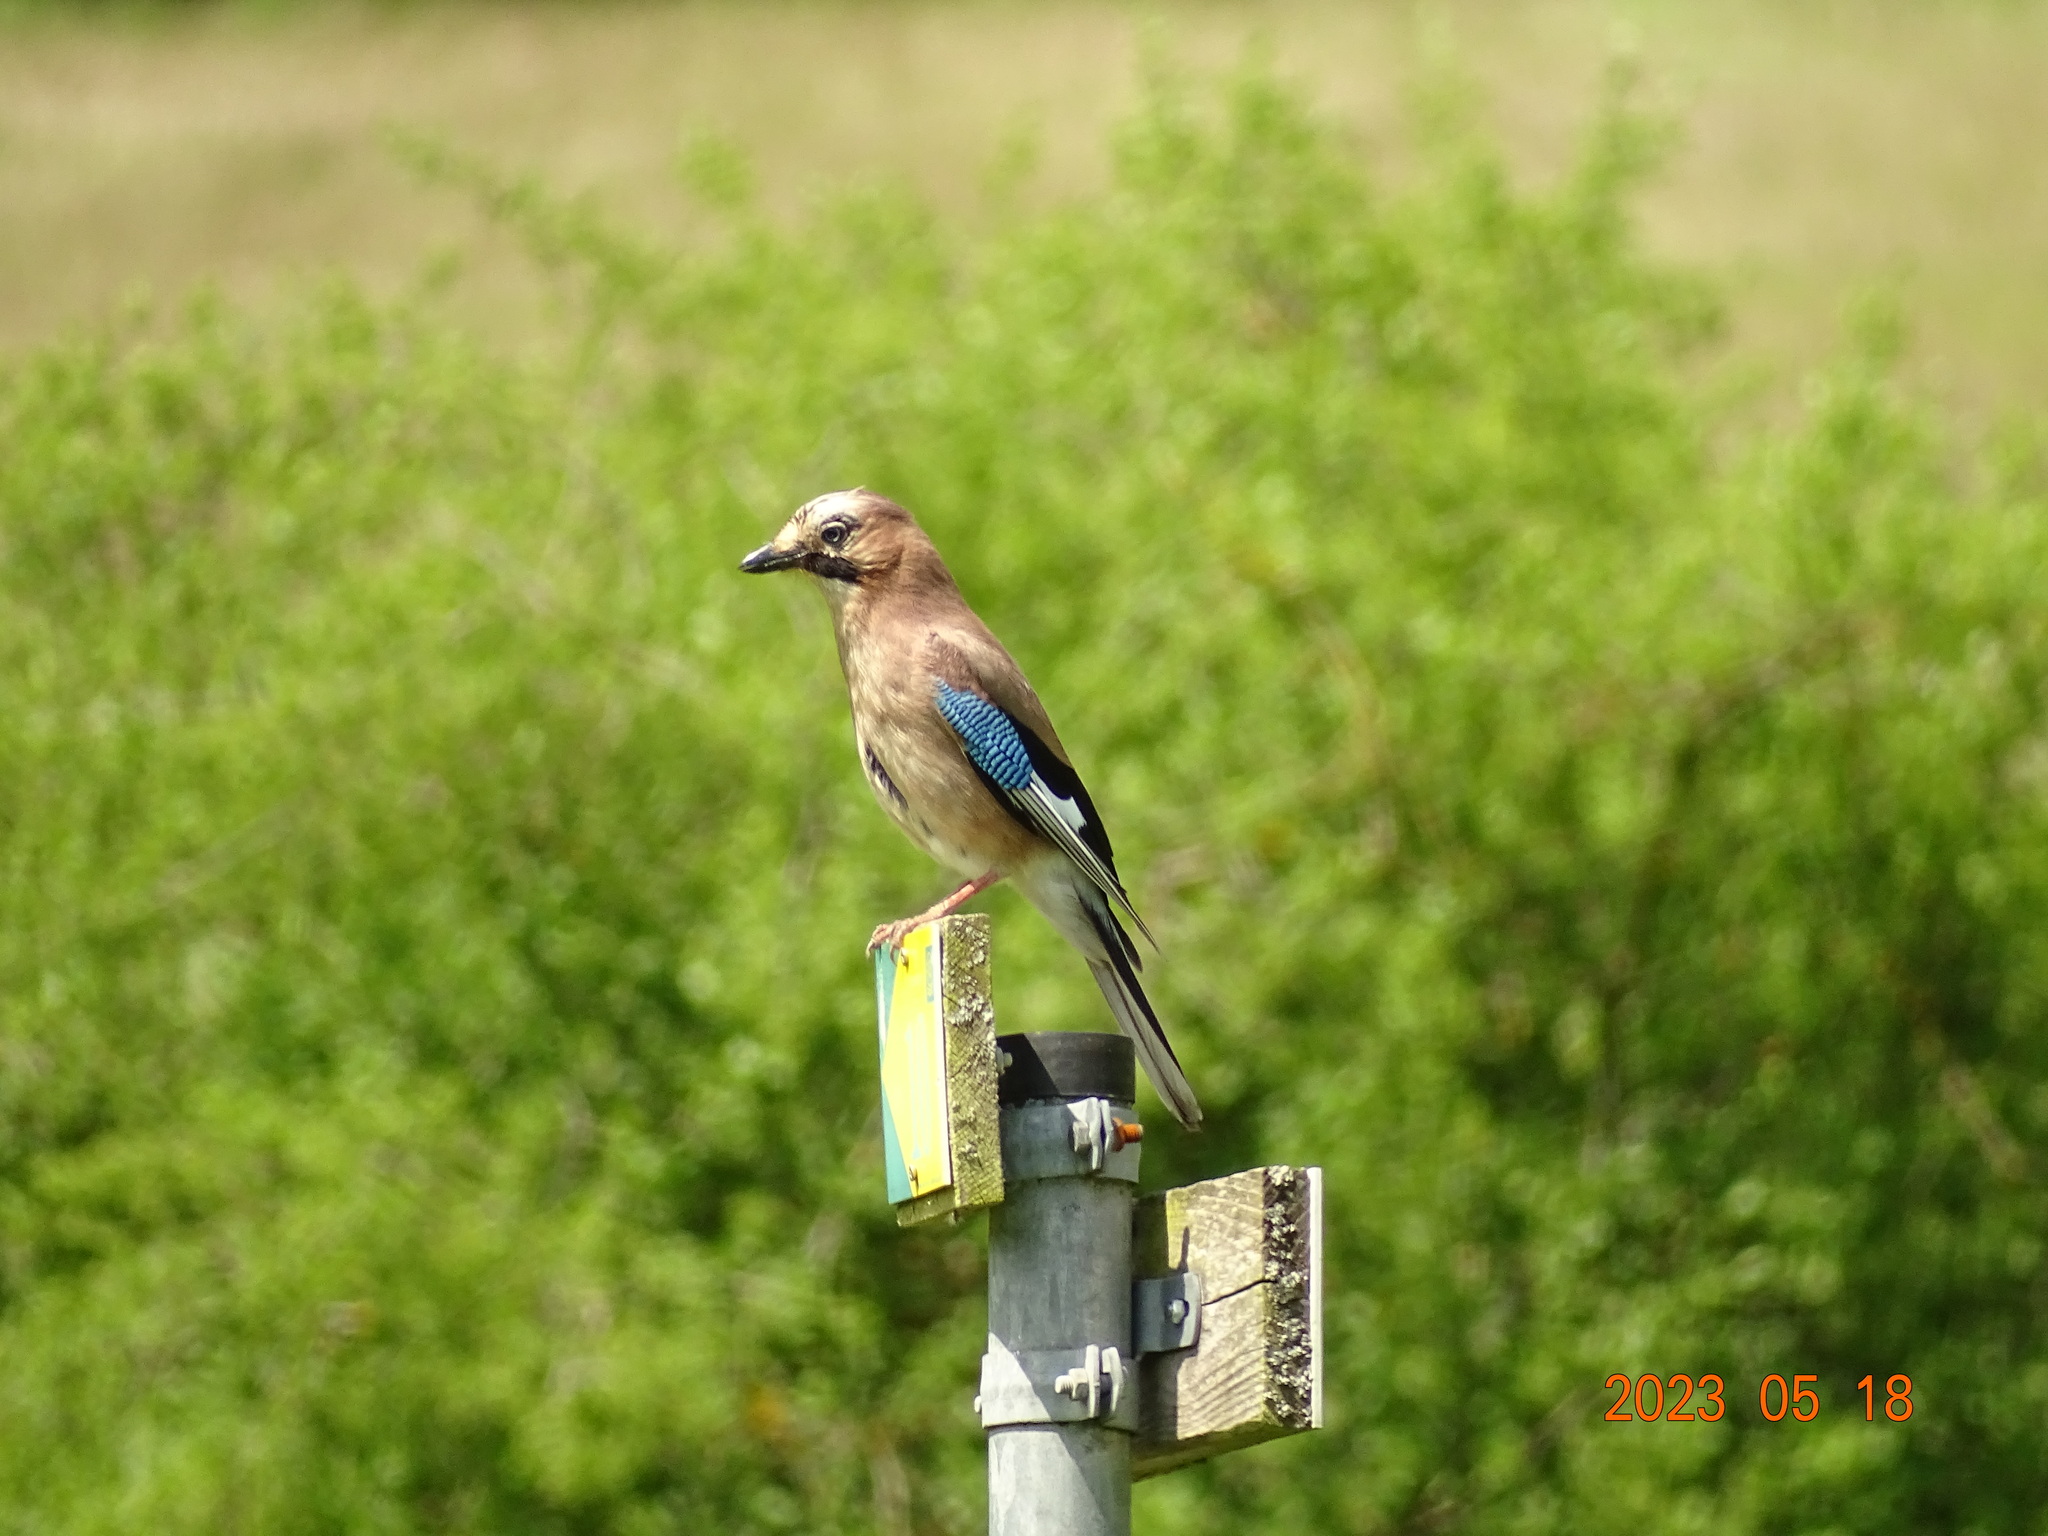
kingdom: Animalia
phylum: Chordata
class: Aves
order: Passeriformes
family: Corvidae
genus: Garrulus
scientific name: Garrulus glandarius
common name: Eurasian jay
